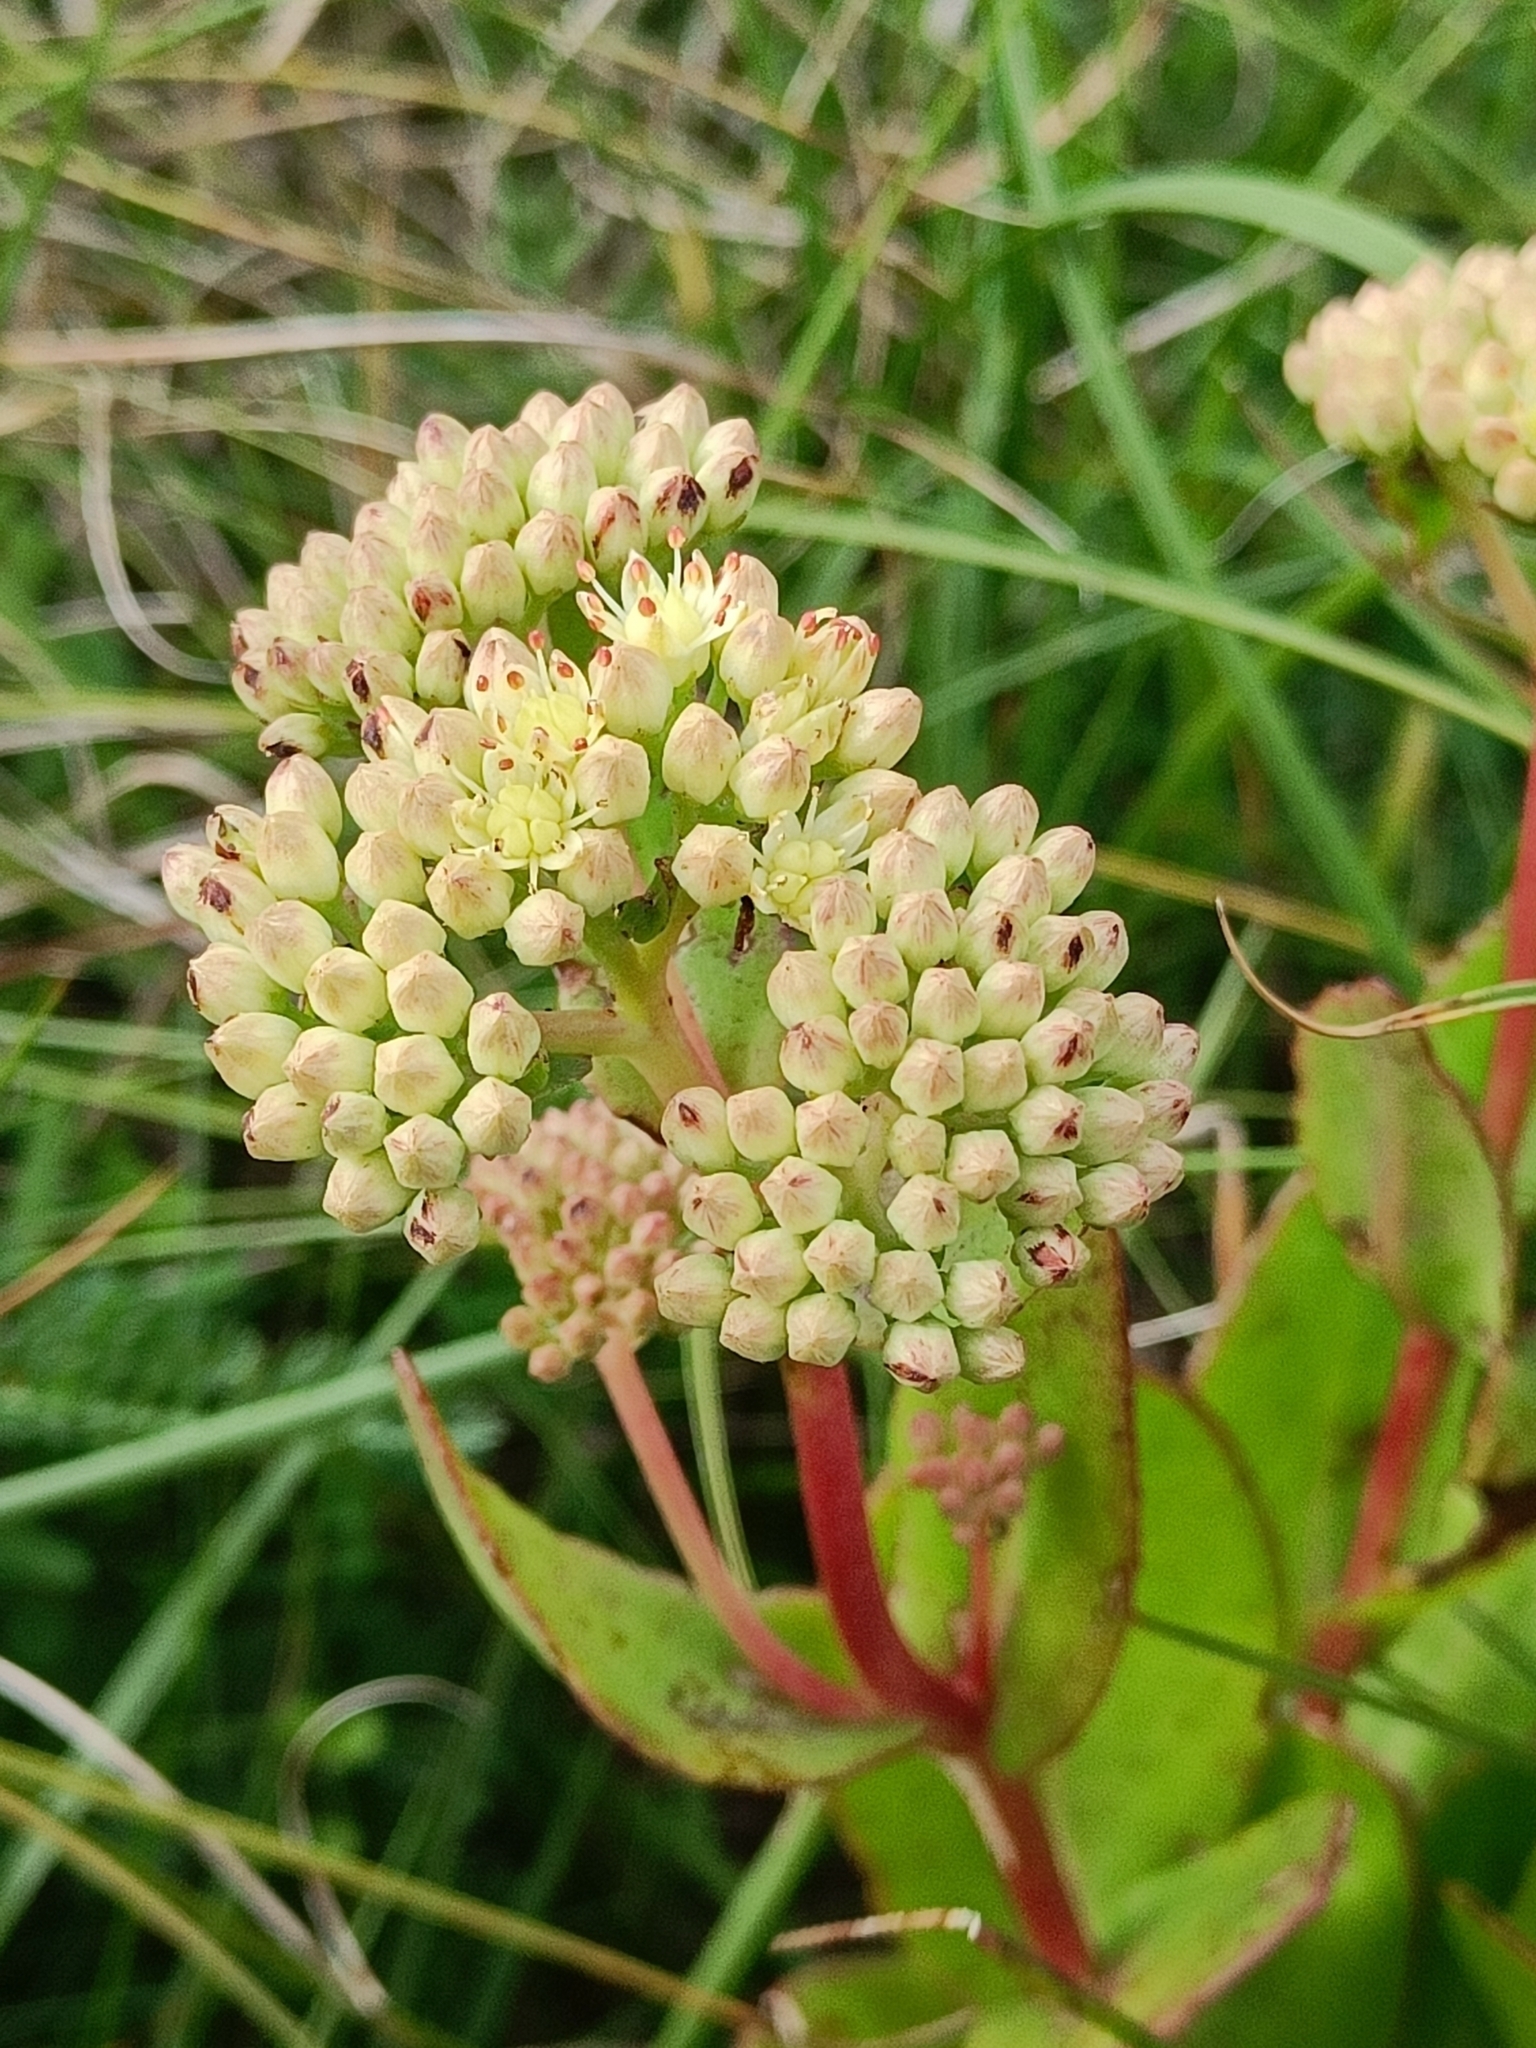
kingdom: Plantae
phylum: Tracheophyta
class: Magnoliopsida
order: Saxifragales
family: Crassulaceae
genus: Hylotelephium
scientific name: Hylotelephium maximum
